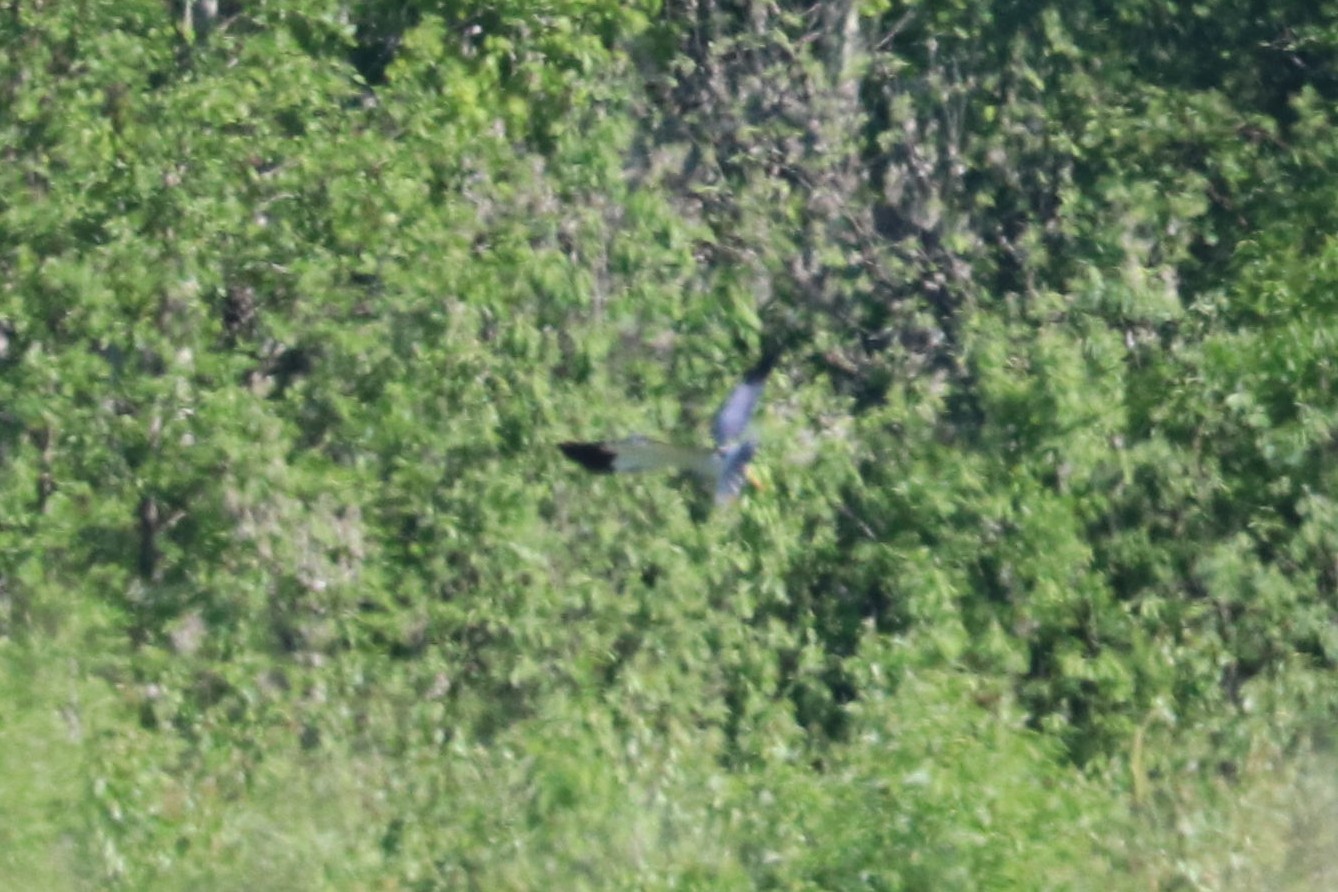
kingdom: Animalia
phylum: Chordata
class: Aves
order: Accipitriformes
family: Accipitridae
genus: Circus
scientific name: Circus cyaneus
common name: Hen harrier
